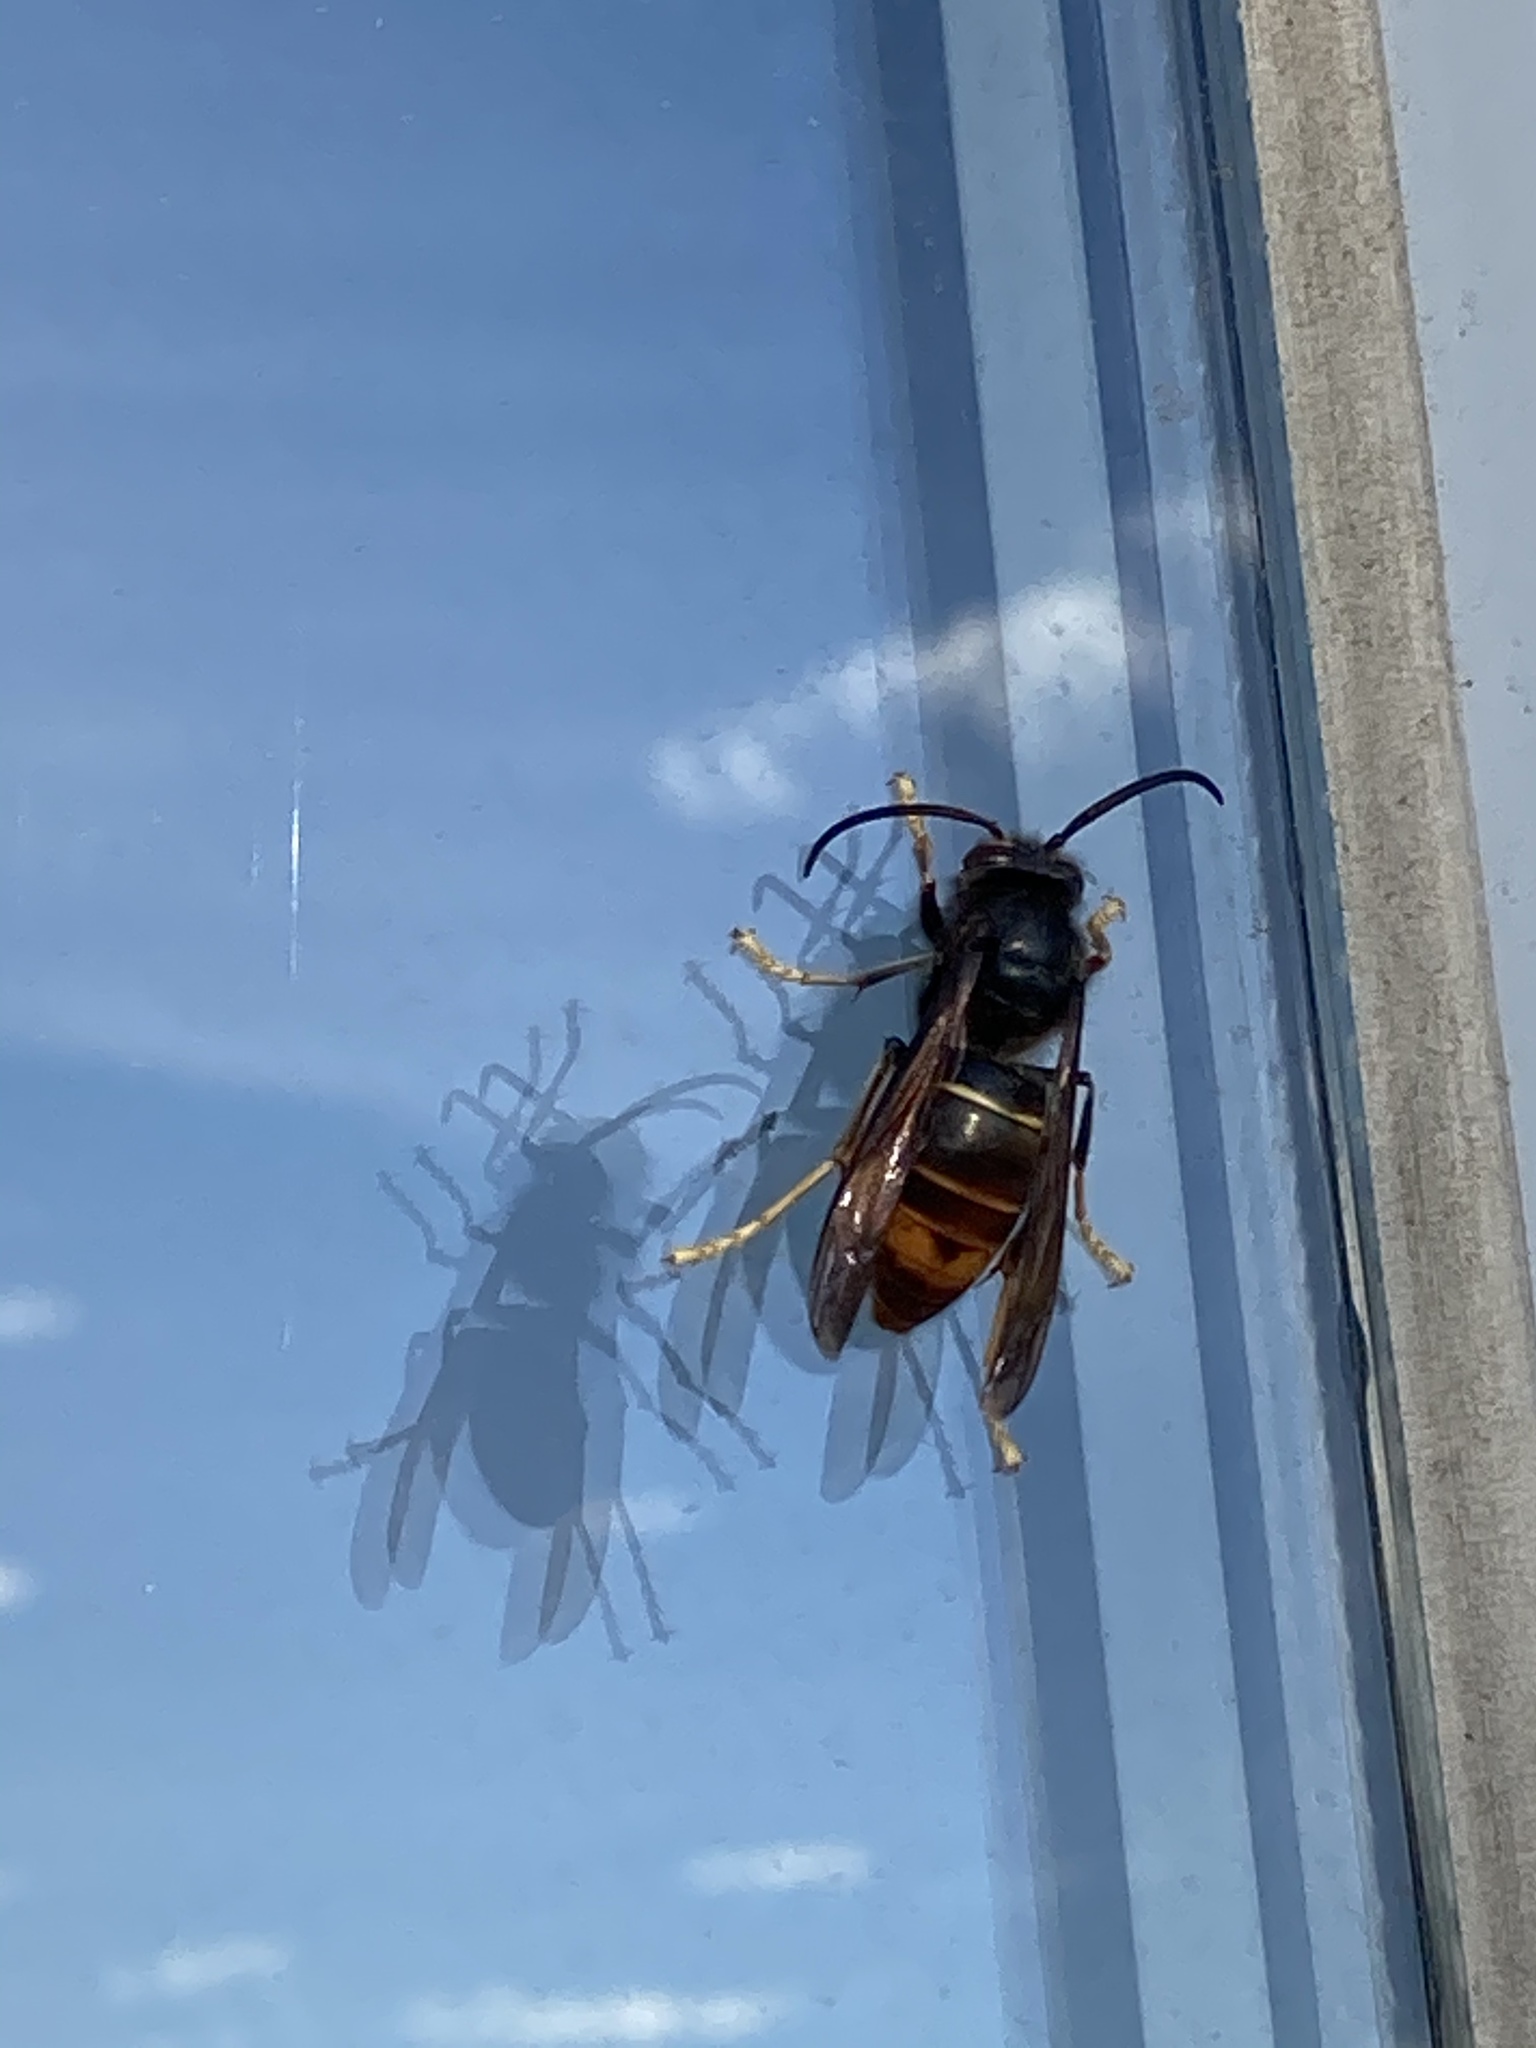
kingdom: Animalia
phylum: Arthropoda
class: Insecta
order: Hymenoptera
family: Vespidae
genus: Vespa
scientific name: Vespa velutina
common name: Asian hornet
